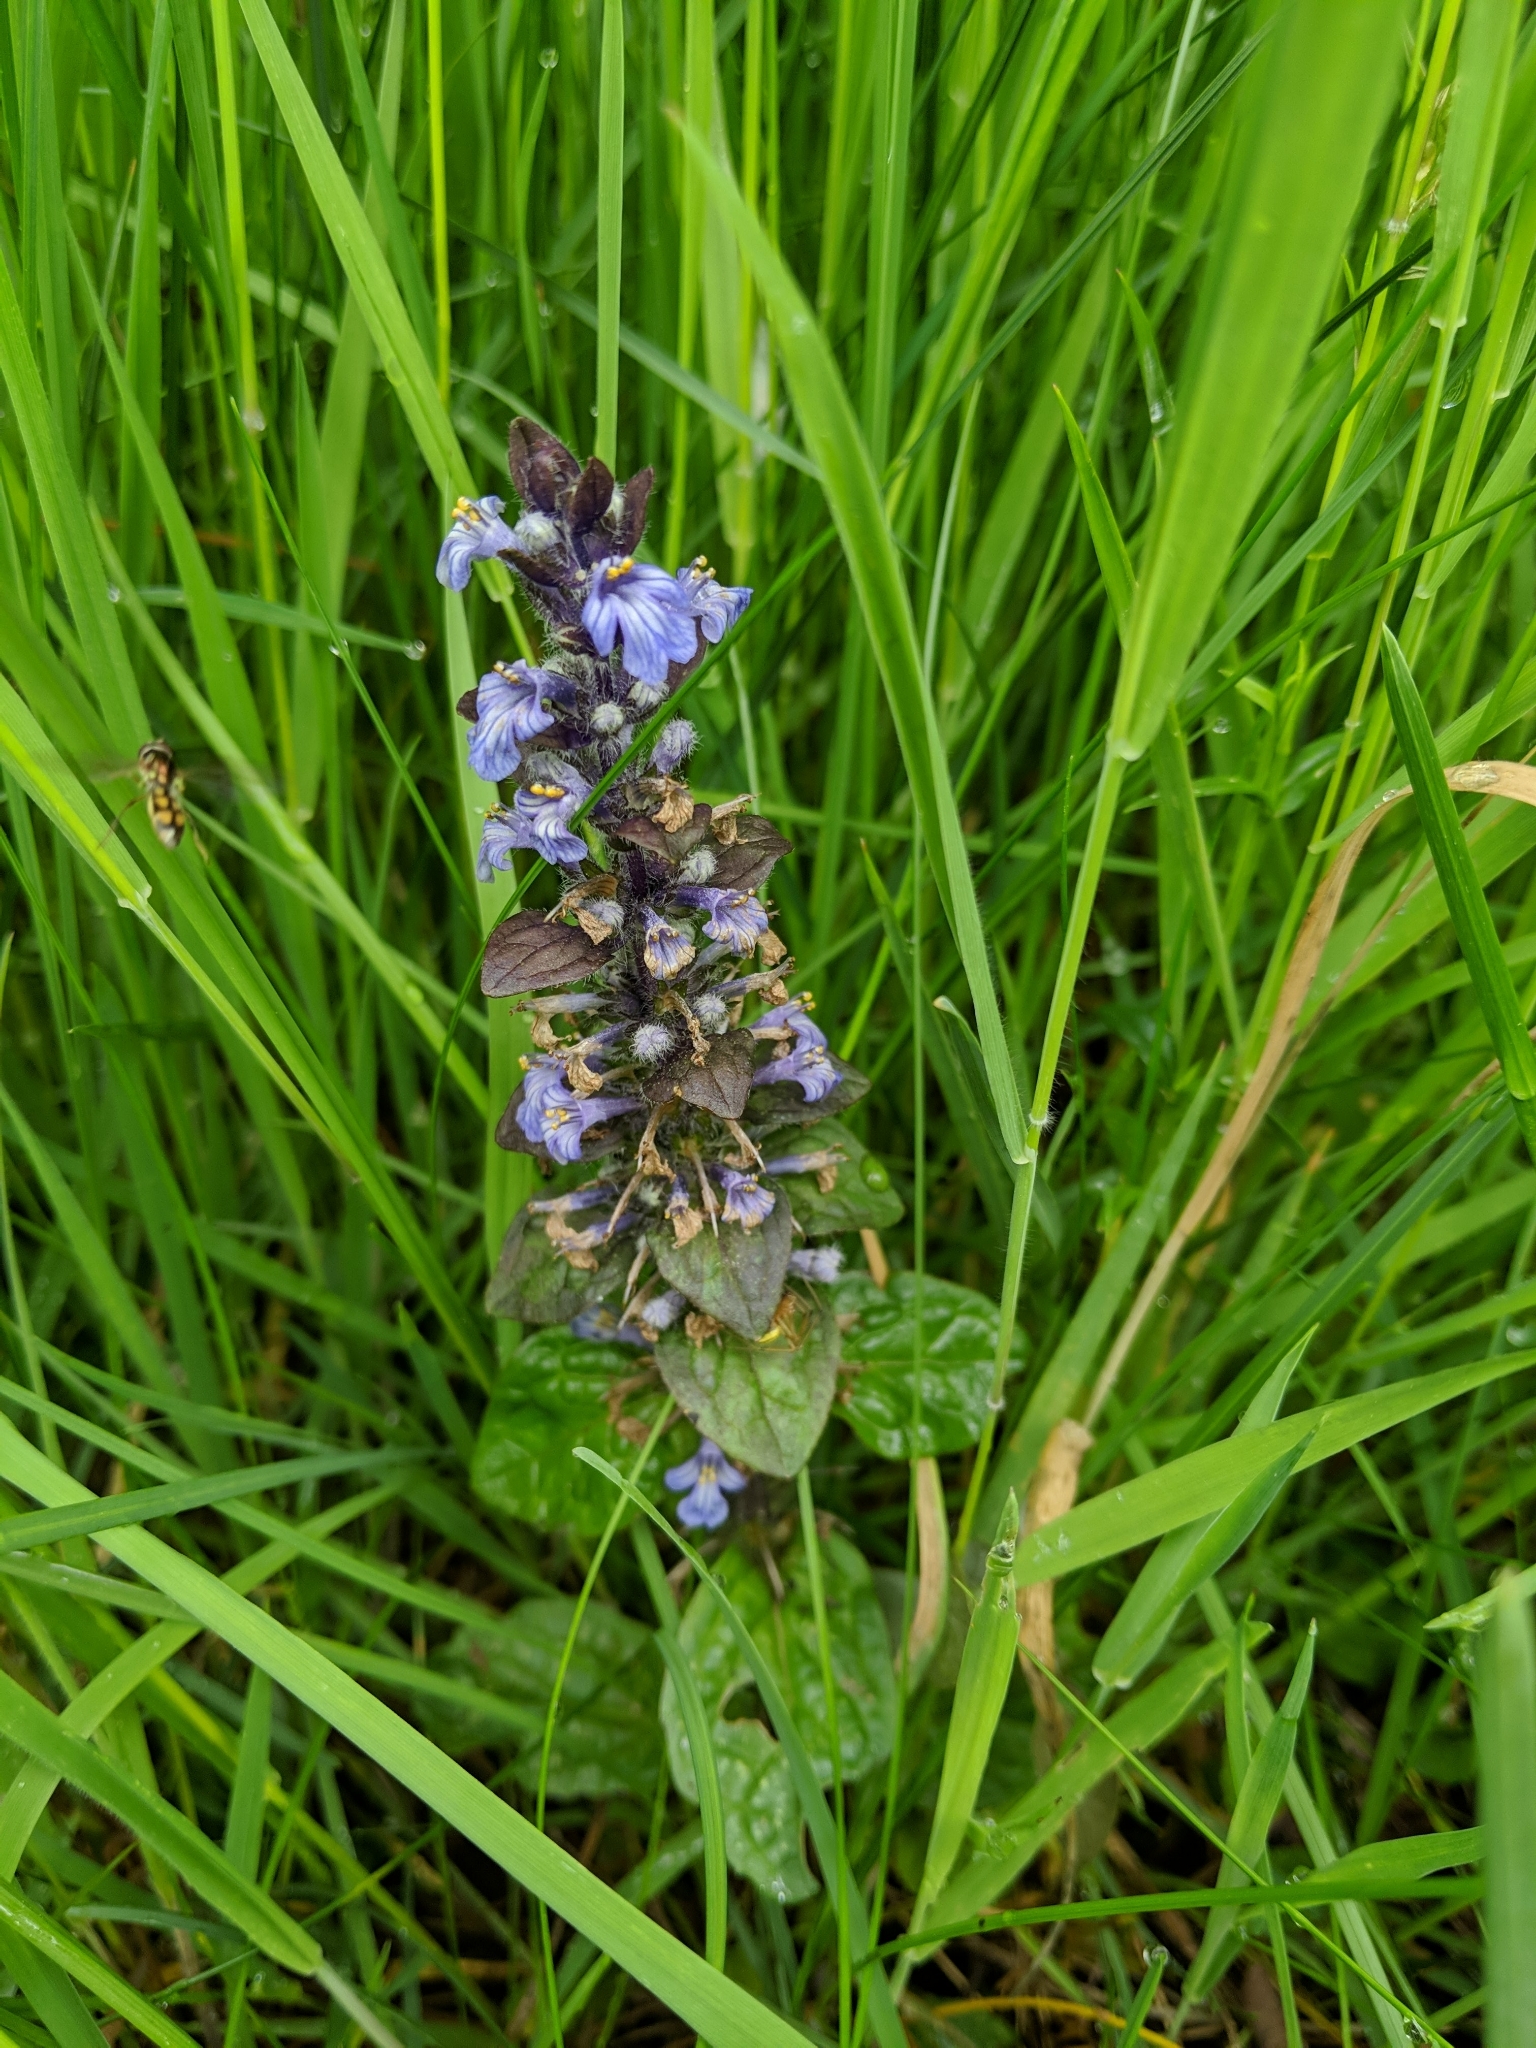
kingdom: Plantae
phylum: Tracheophyta
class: Magnoliopsida
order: Lamiales
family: Lamiaceae
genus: Ajuga
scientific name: Ajuga reptans
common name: Bugle
